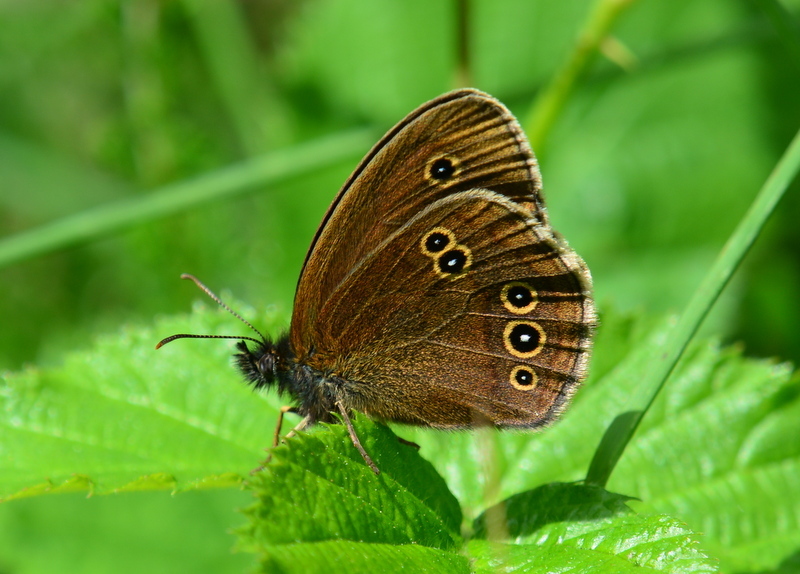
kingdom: Animalia
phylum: Arthropoda
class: Insecta
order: Lepidoptera
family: Nymphalidae
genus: Aphantopus
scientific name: Aphantopus hyperantus
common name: Ringlet
